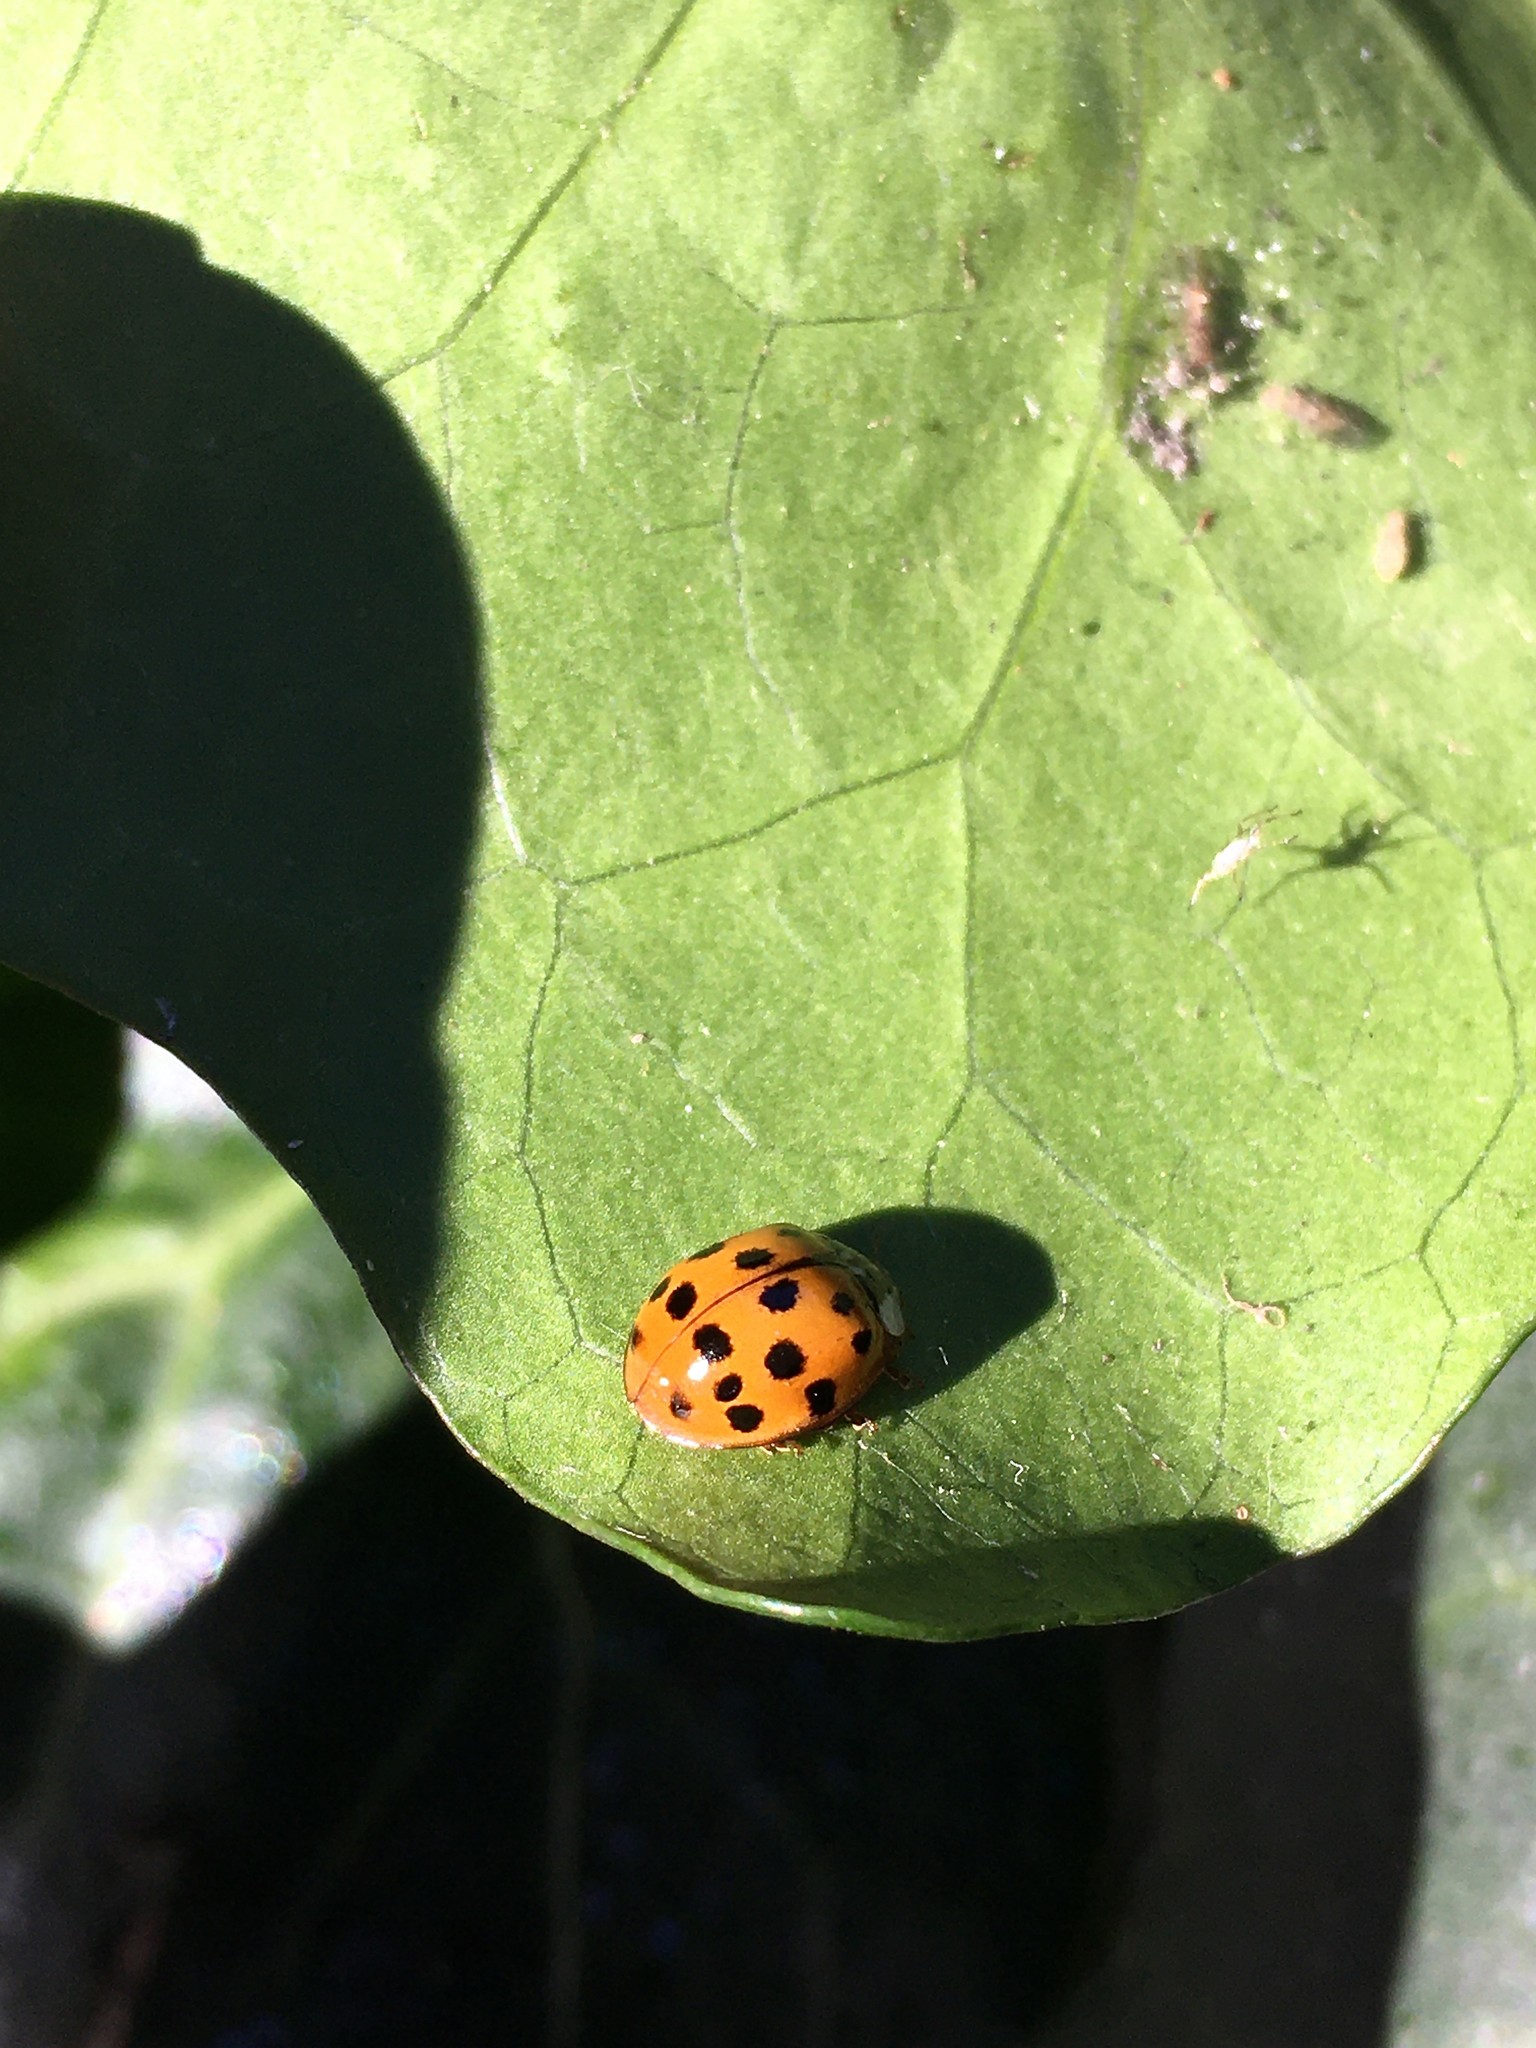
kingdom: Animalia
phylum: Arthropoda
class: Insecta
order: Coleoptera
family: Coccinellidae
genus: Harmonia
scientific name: Harmonia axyridis
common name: Harlequin ladybird
